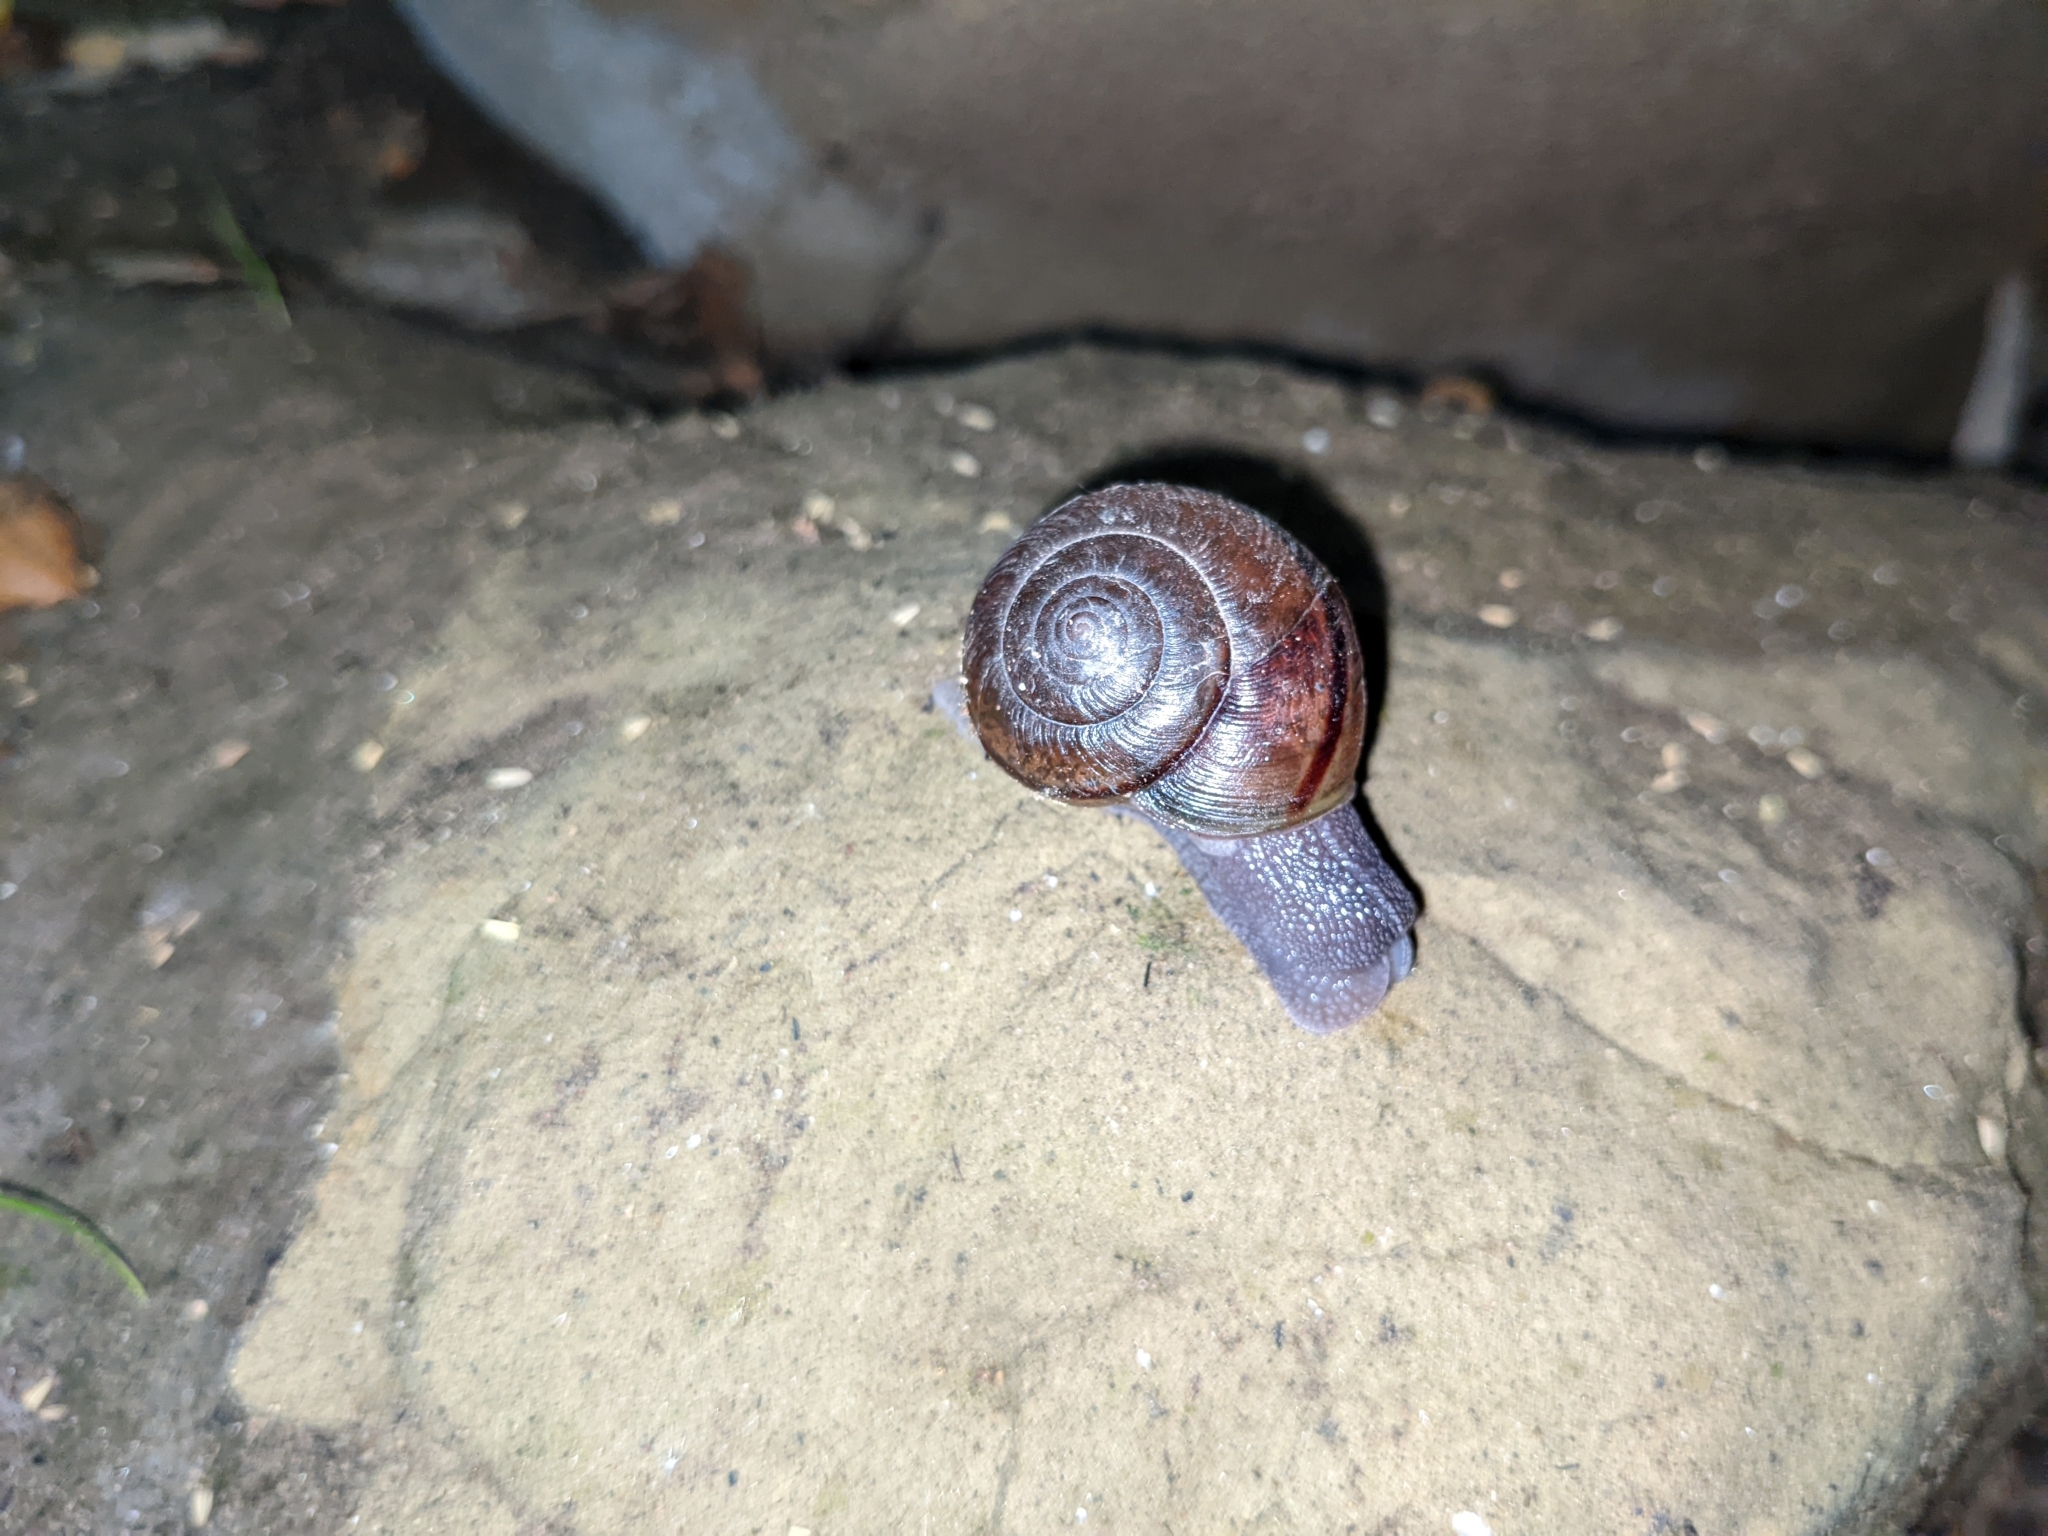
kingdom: Animalia
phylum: Mollusca
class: Gastropoda
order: Stylommatophora
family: Xanthonychidae
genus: Helminthoglypta
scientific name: Helminthoglypta phlyctaena
